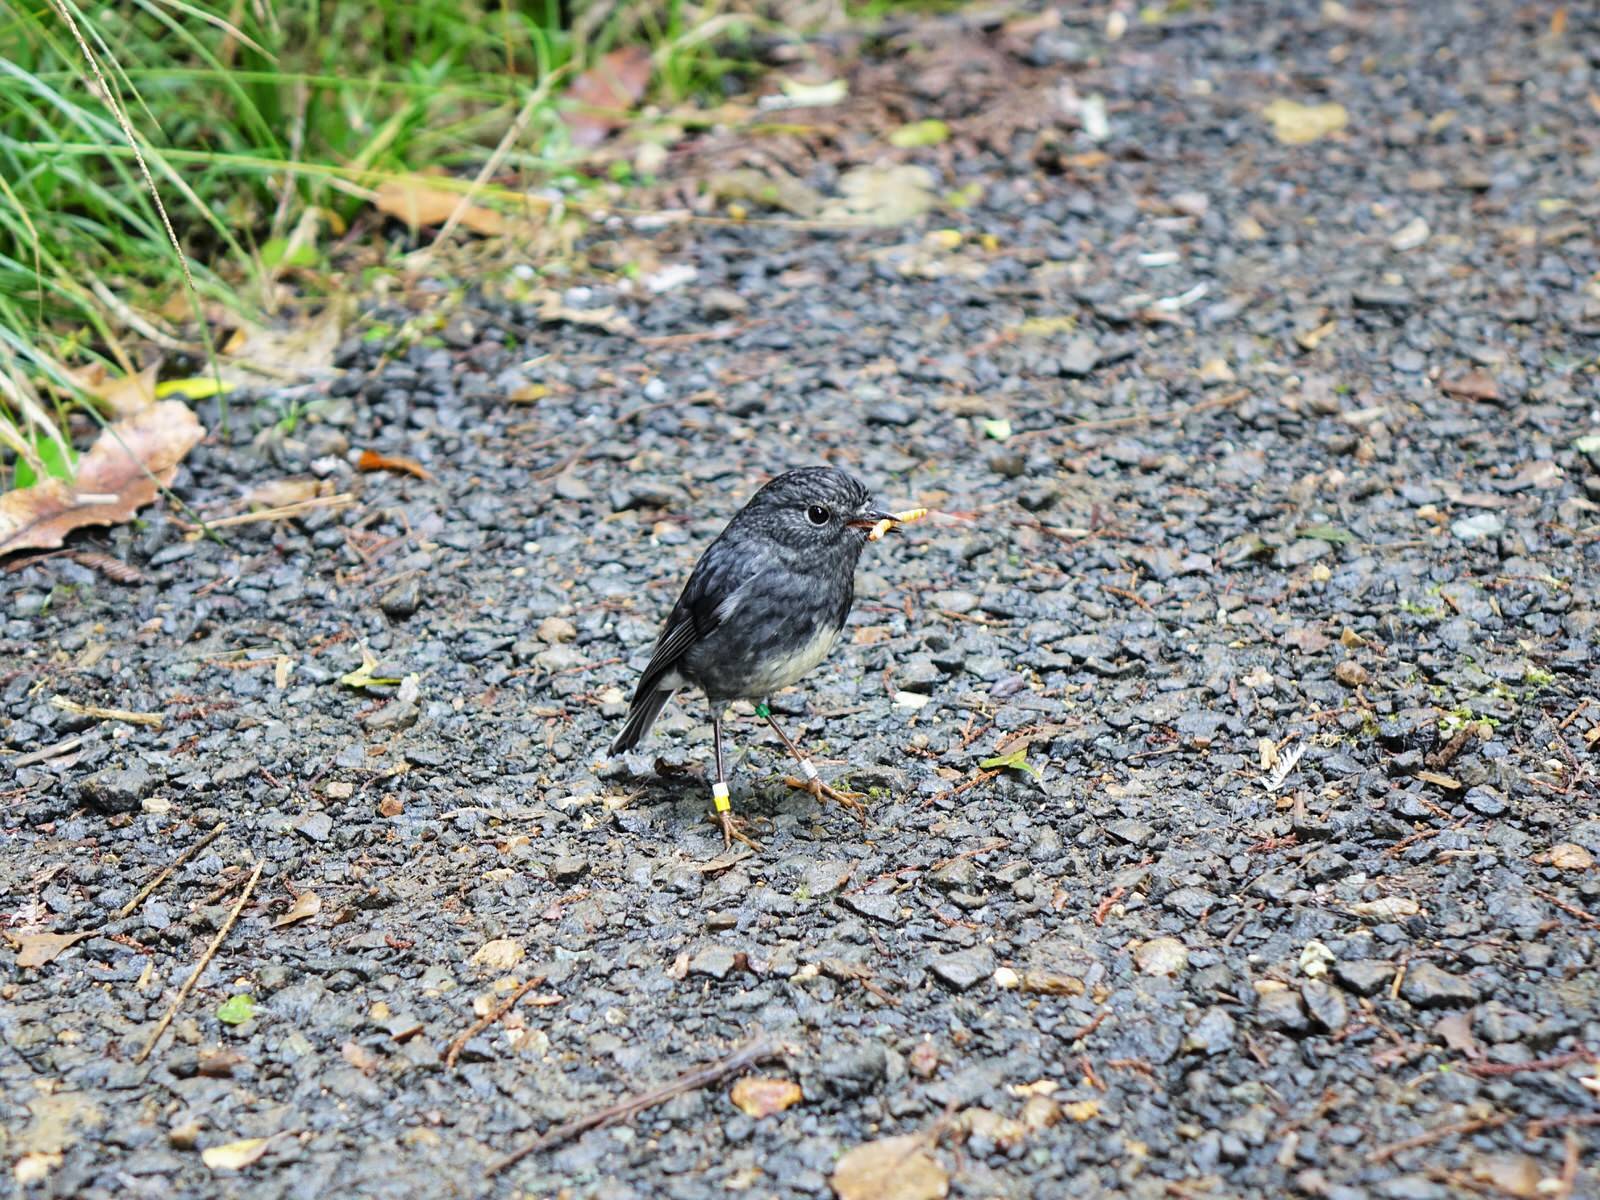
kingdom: Animalia
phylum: Chordata
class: Aves
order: Passeriformes
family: Petroicidae
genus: Petroica
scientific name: Petroica australis
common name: New zealand robin
